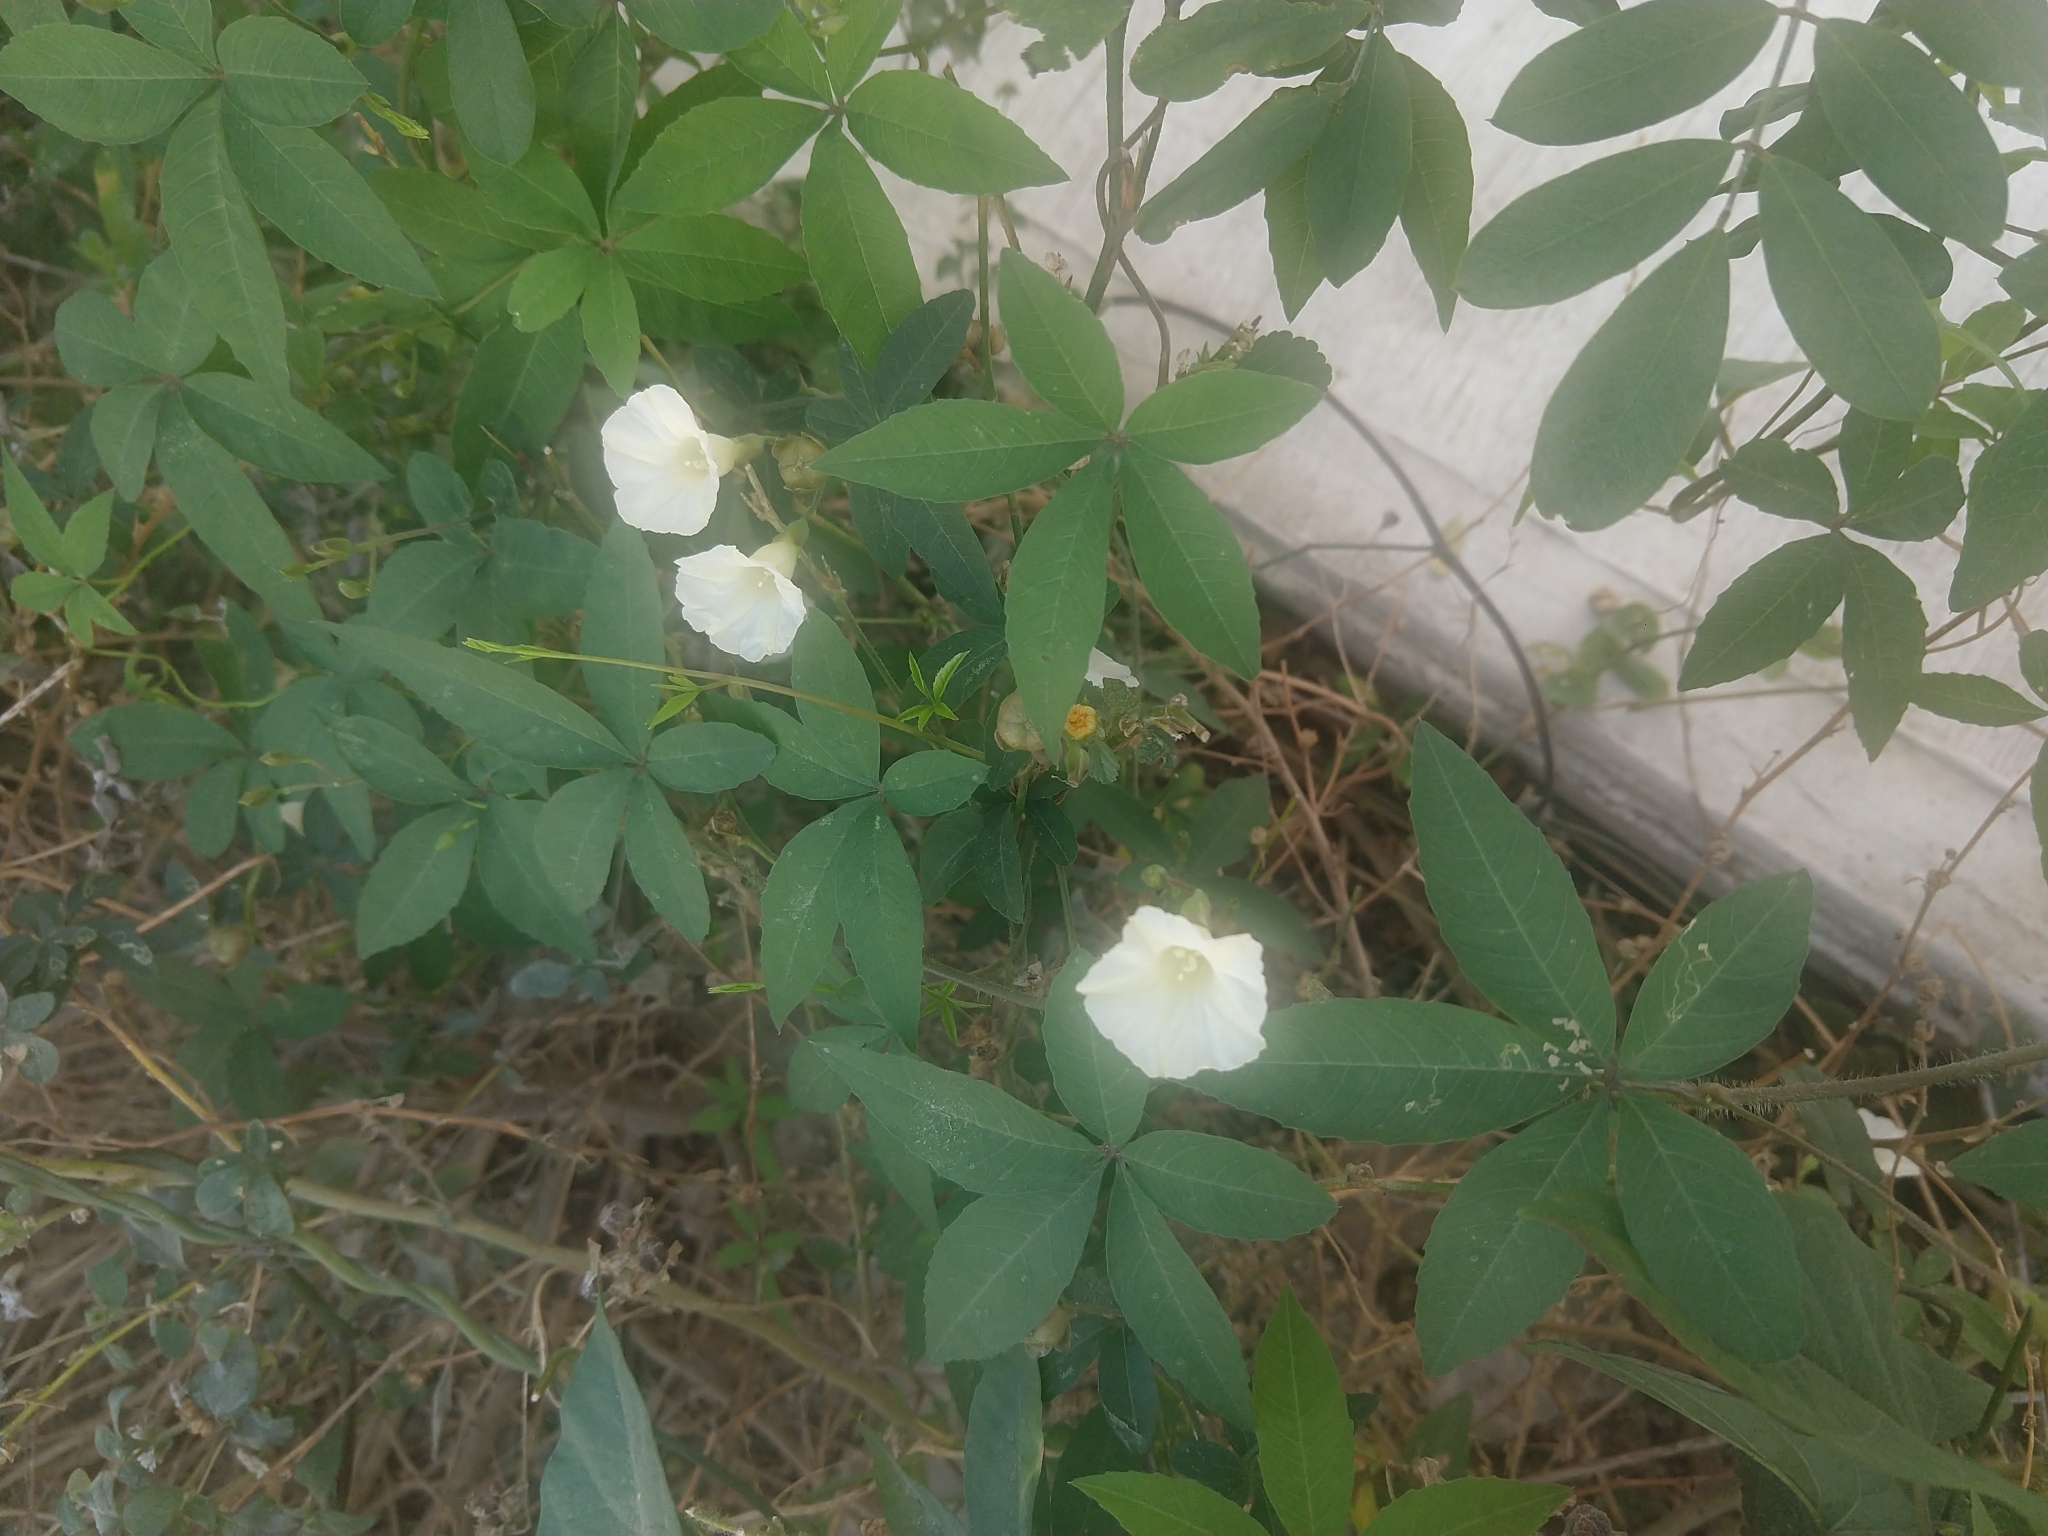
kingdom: Plantae
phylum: Tracheophyta
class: Magnoliopsida
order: Solanales
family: Convolvulaceae
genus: Distimake
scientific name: Distimake quinquefolius
